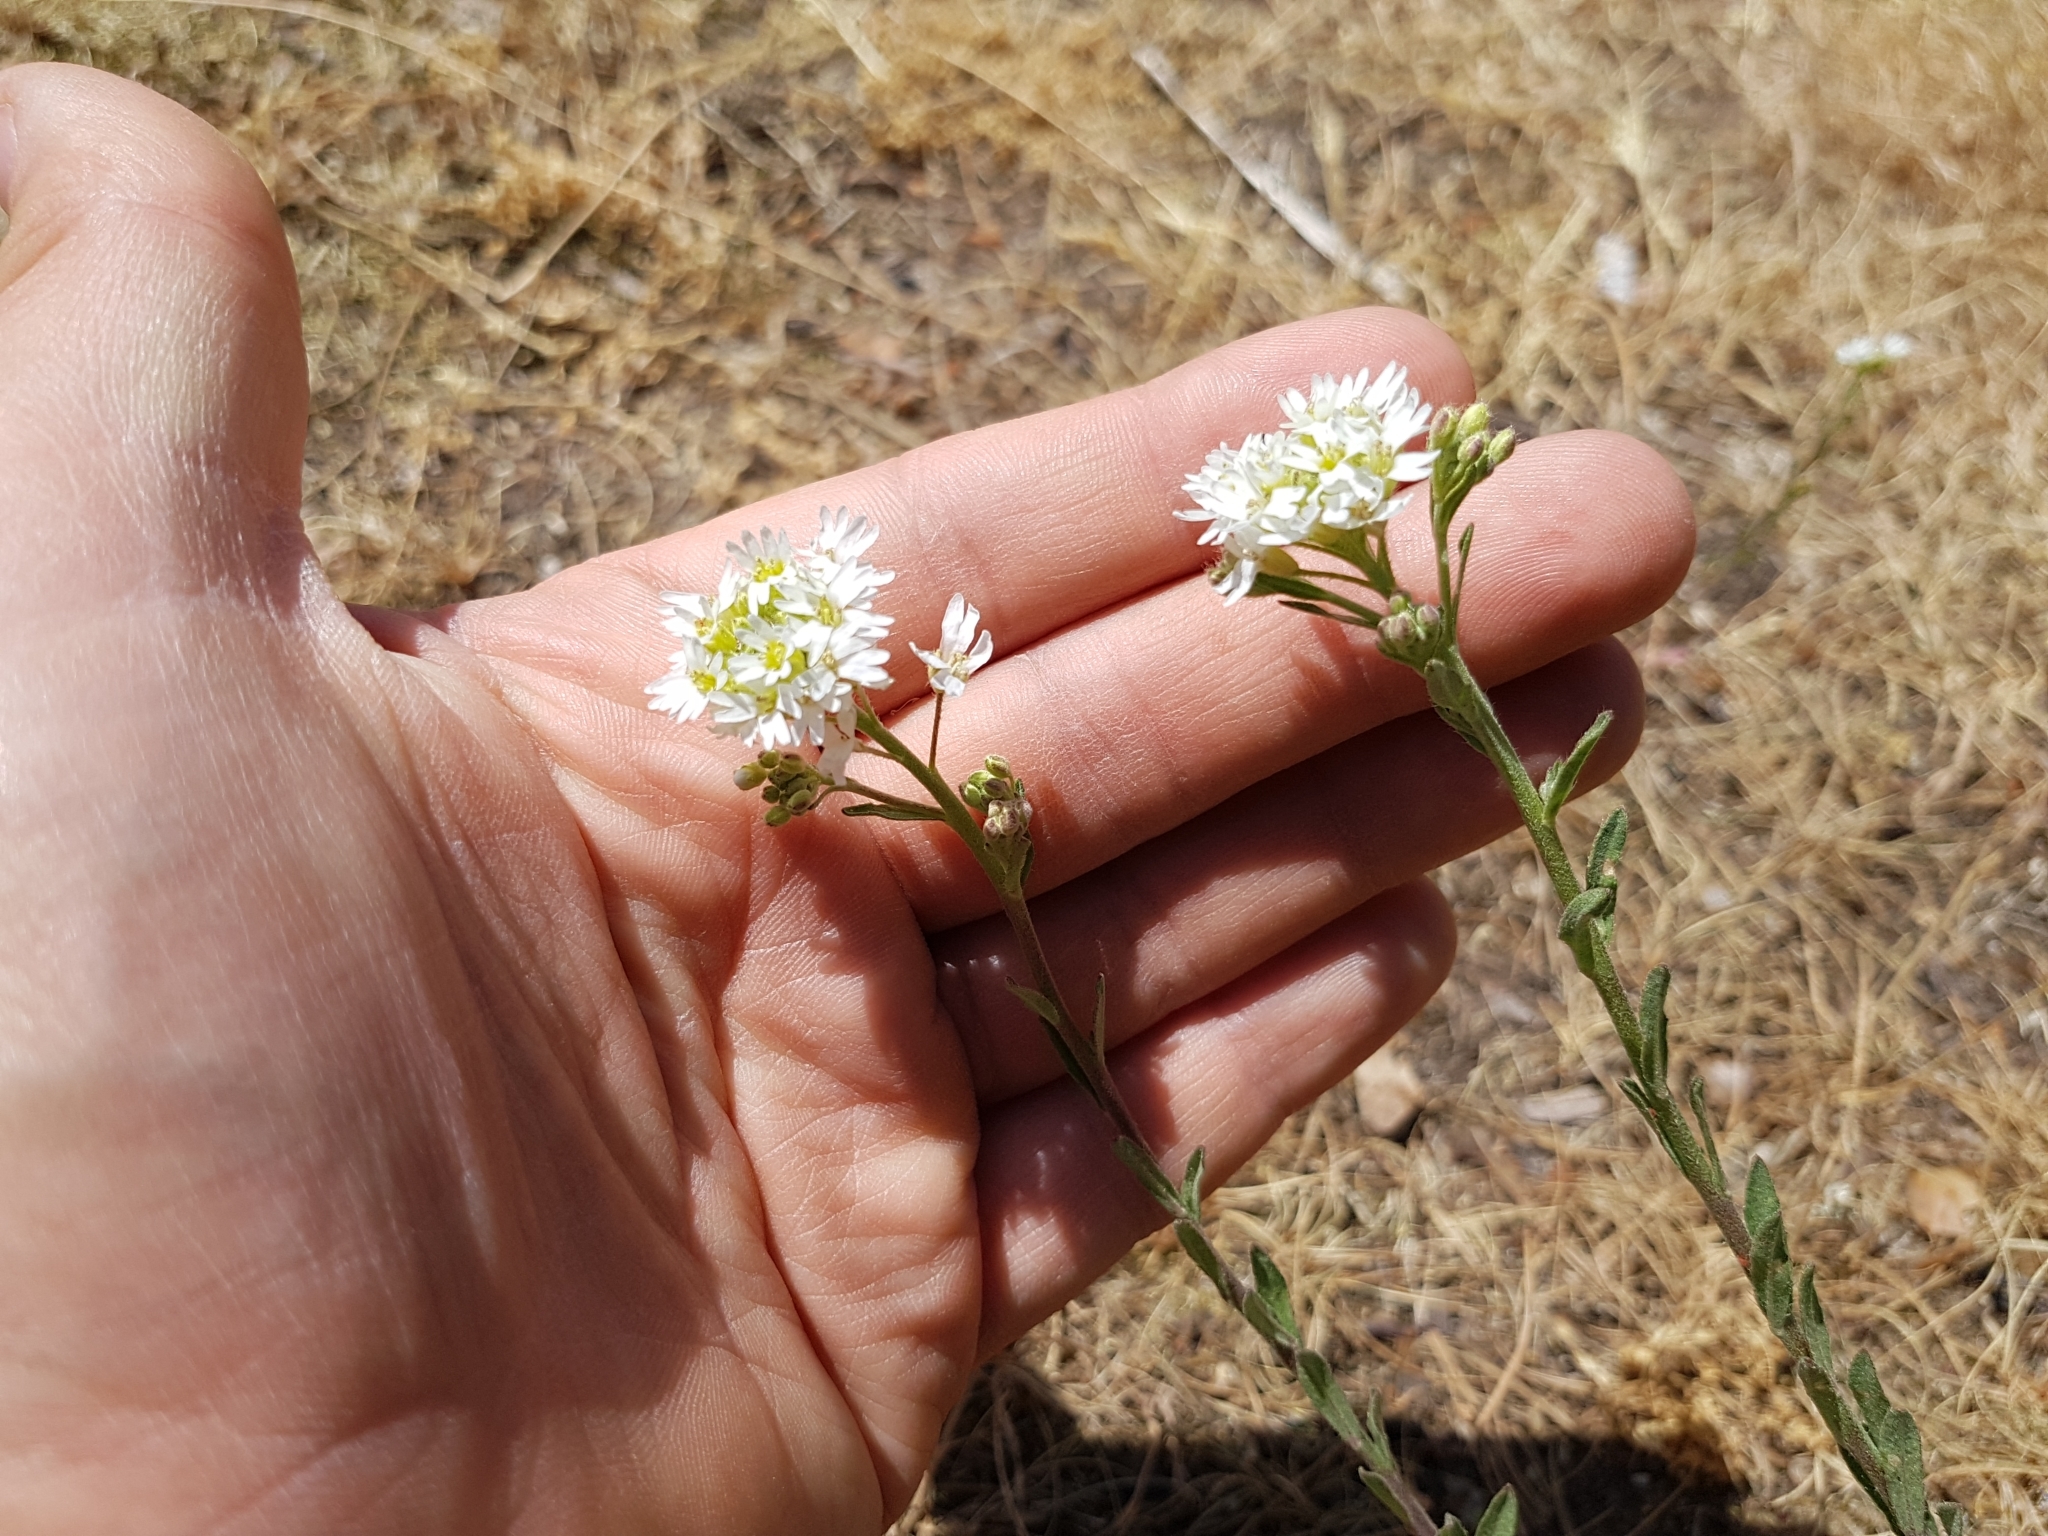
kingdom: Plantae
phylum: Tracheophyta
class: Magnoliopsida
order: Brassicales
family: Brassicaceae
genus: Berteroa
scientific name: Berteroa incana
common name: Hoary alison
